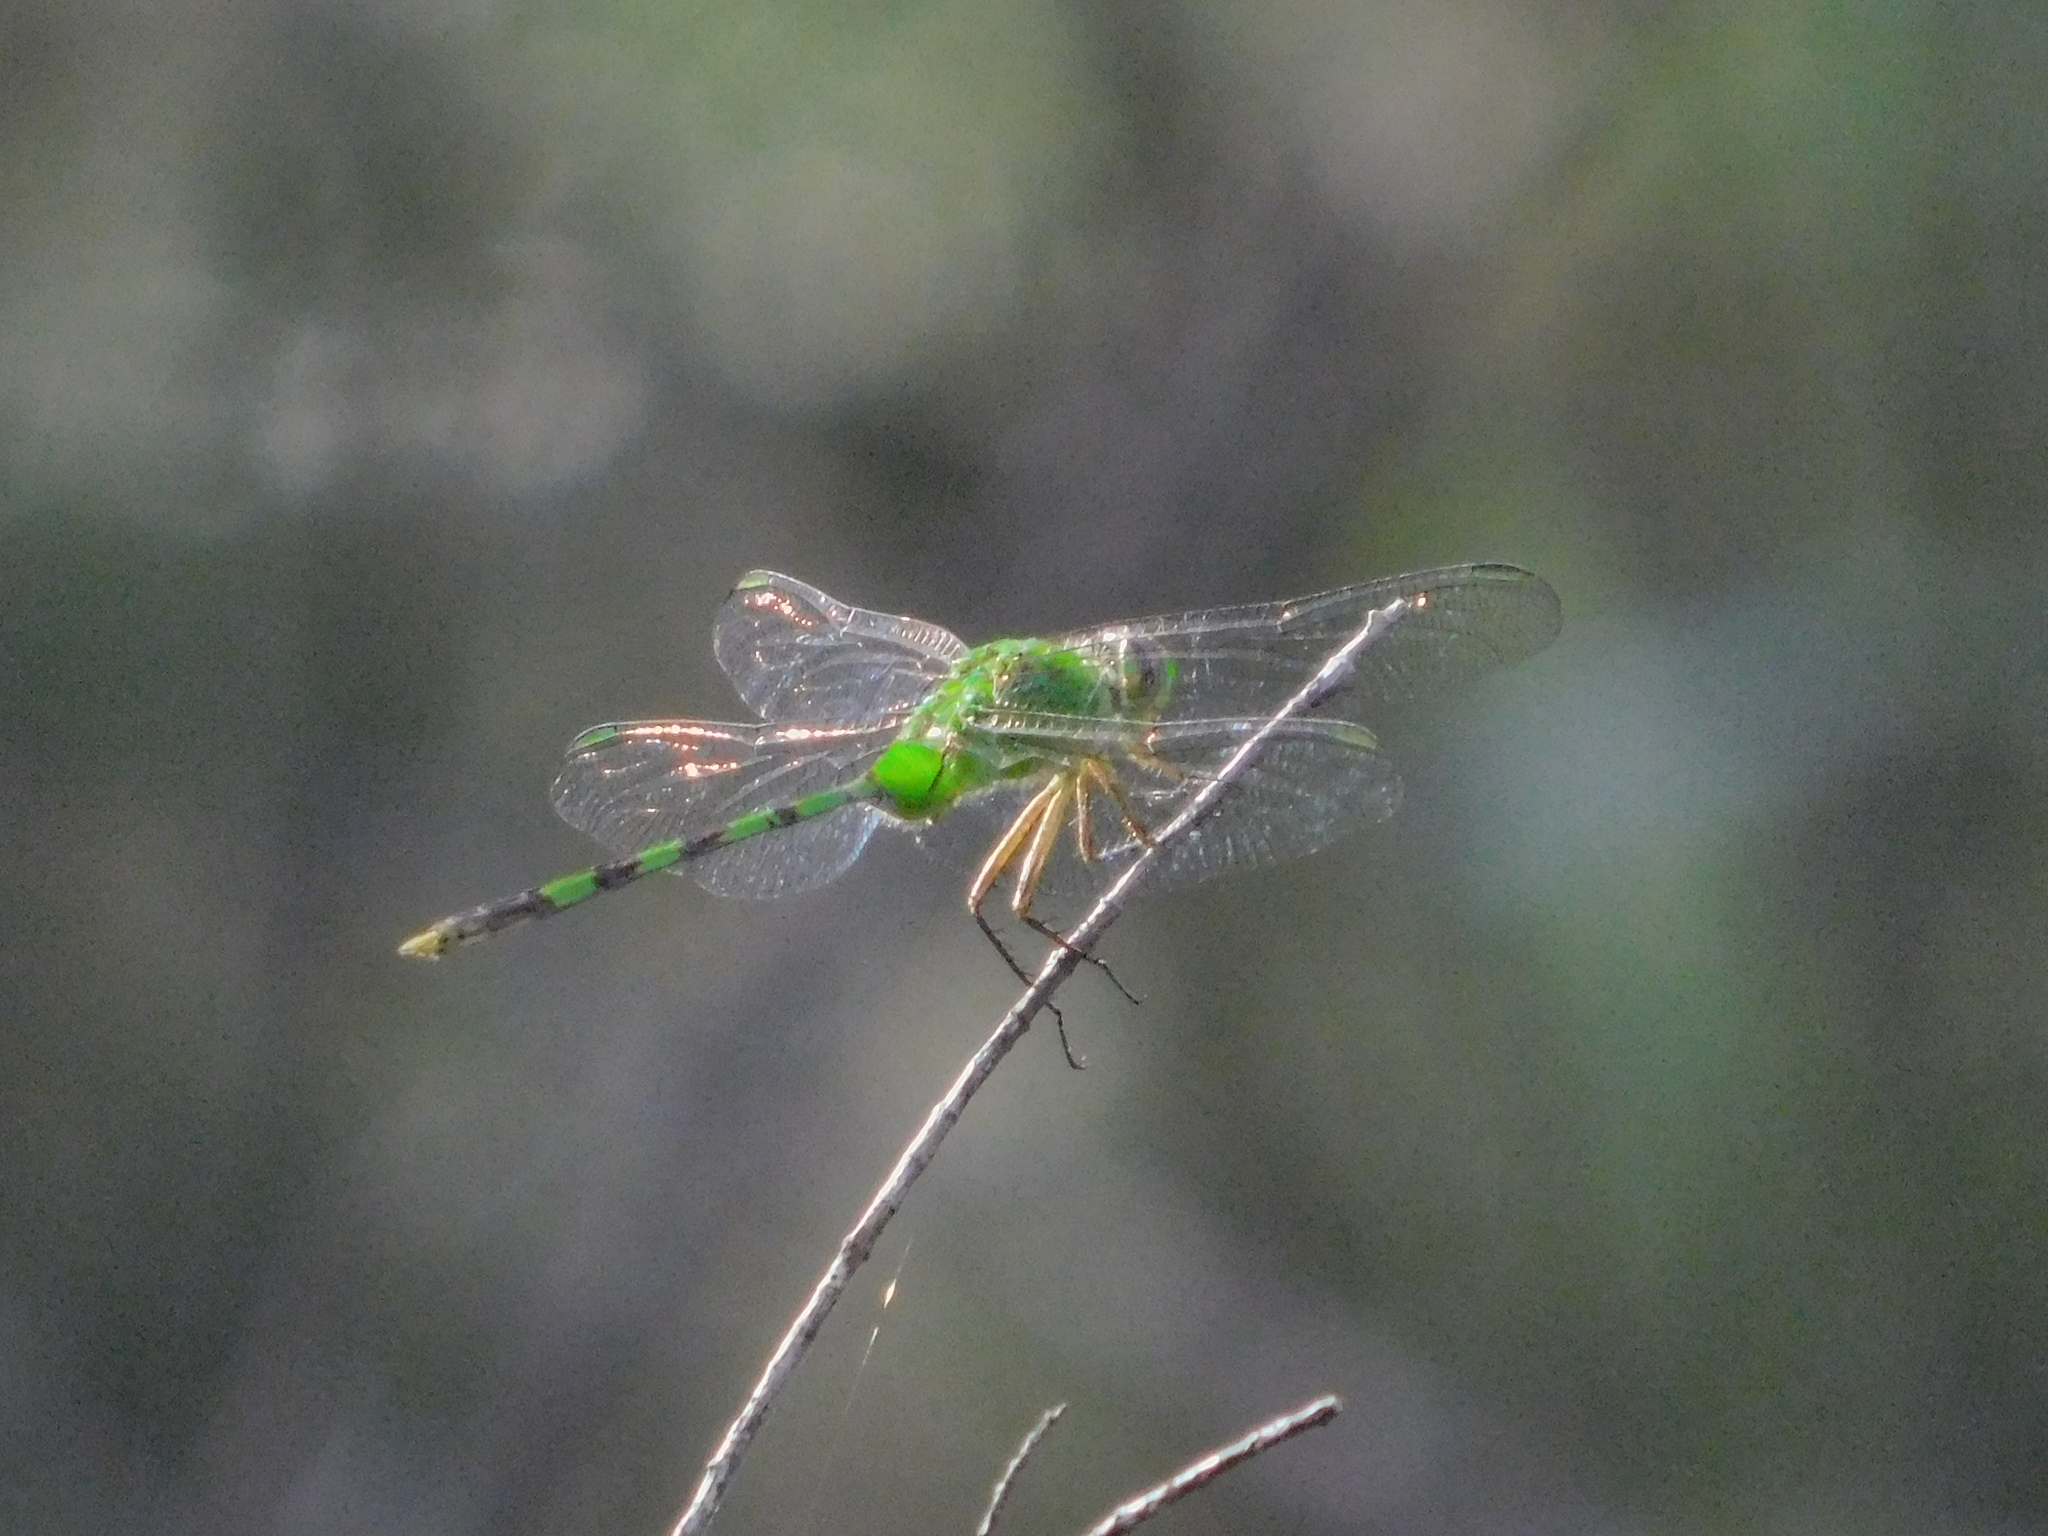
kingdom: Animalia
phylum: Arthropoda
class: Insecta
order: Odonata
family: Libellulidae
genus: Erythemis
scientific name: Erythemis vesiculosa
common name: Great pondhawk
